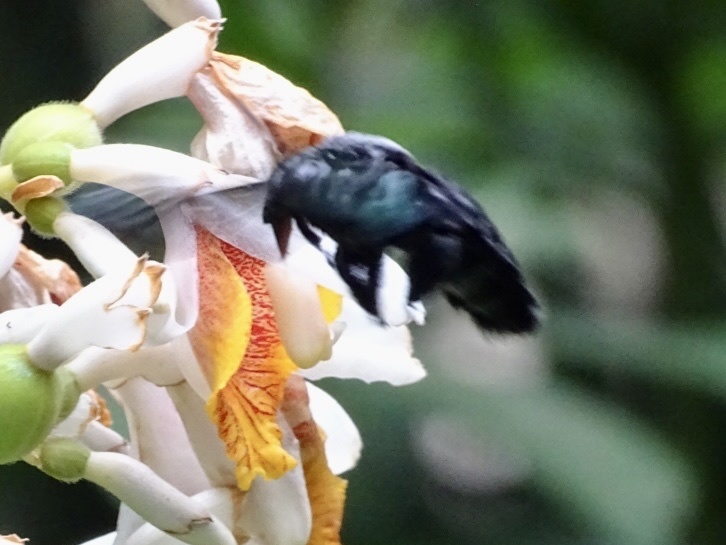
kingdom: Animalia
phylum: Arthropoda
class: Insecta
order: Hymenoptera
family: Apidae
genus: Xylocopa
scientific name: Xylocopa latipes
